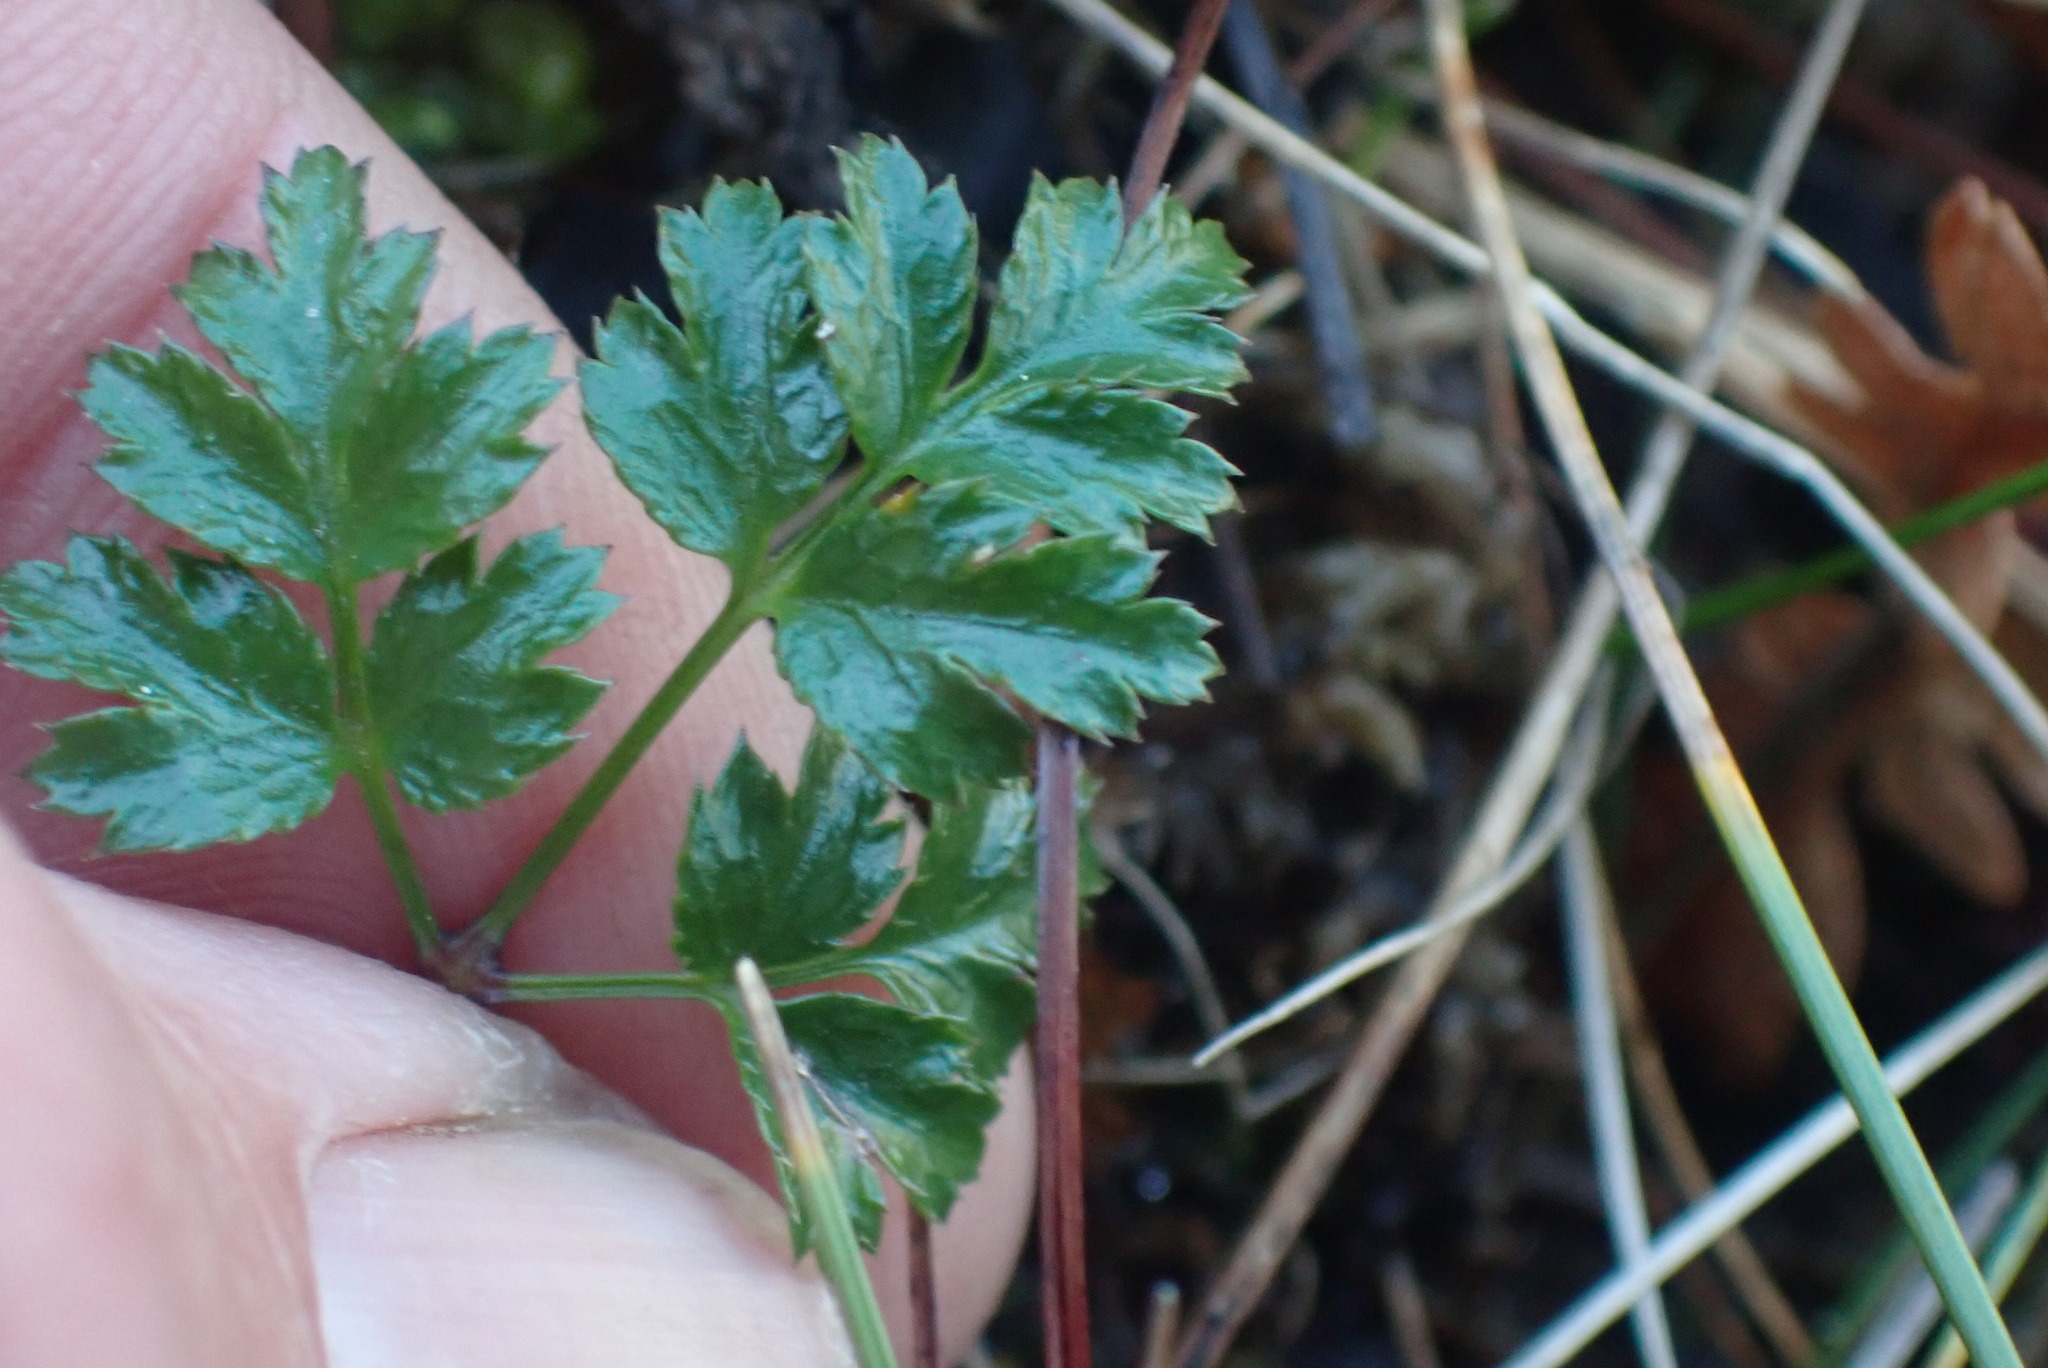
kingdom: Plantae
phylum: Tracheophyta
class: Magnoliopsida
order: Ranunculales
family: Ranunculaceae
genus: Coptis
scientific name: Coptis aspleniifolia
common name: Fern-leaved goldthread
